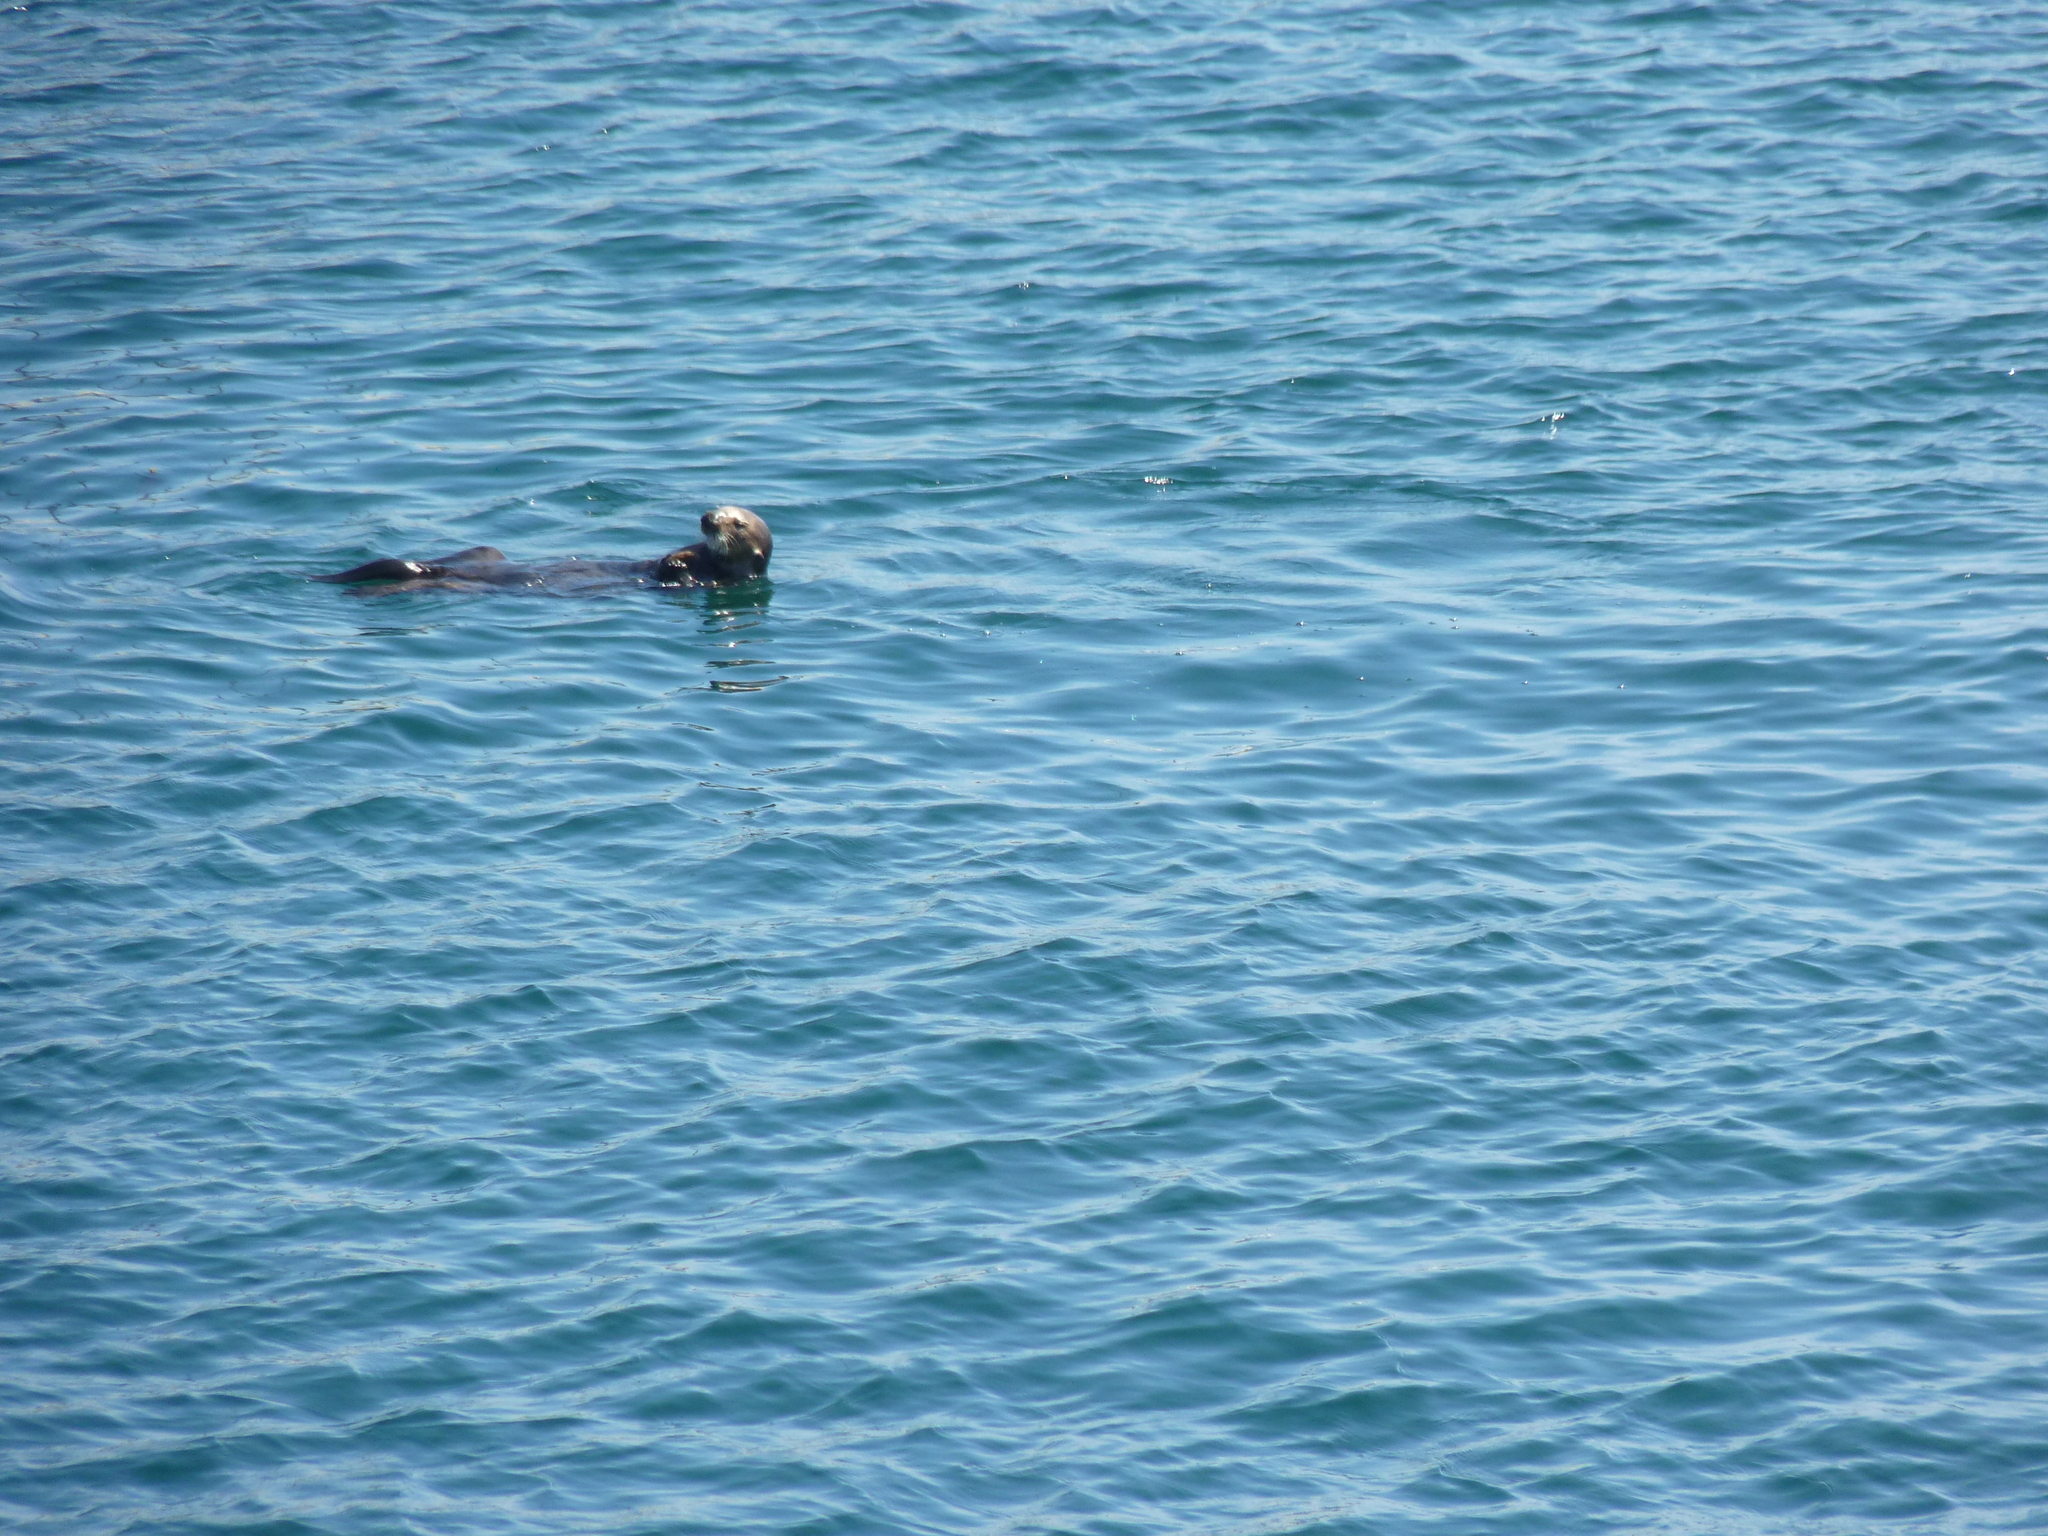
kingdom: Animalia
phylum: Chordata
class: Mammalia
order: Carnivora
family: Mustelidae
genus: Enhydra
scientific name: Enhydra lutris
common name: Sea otter
